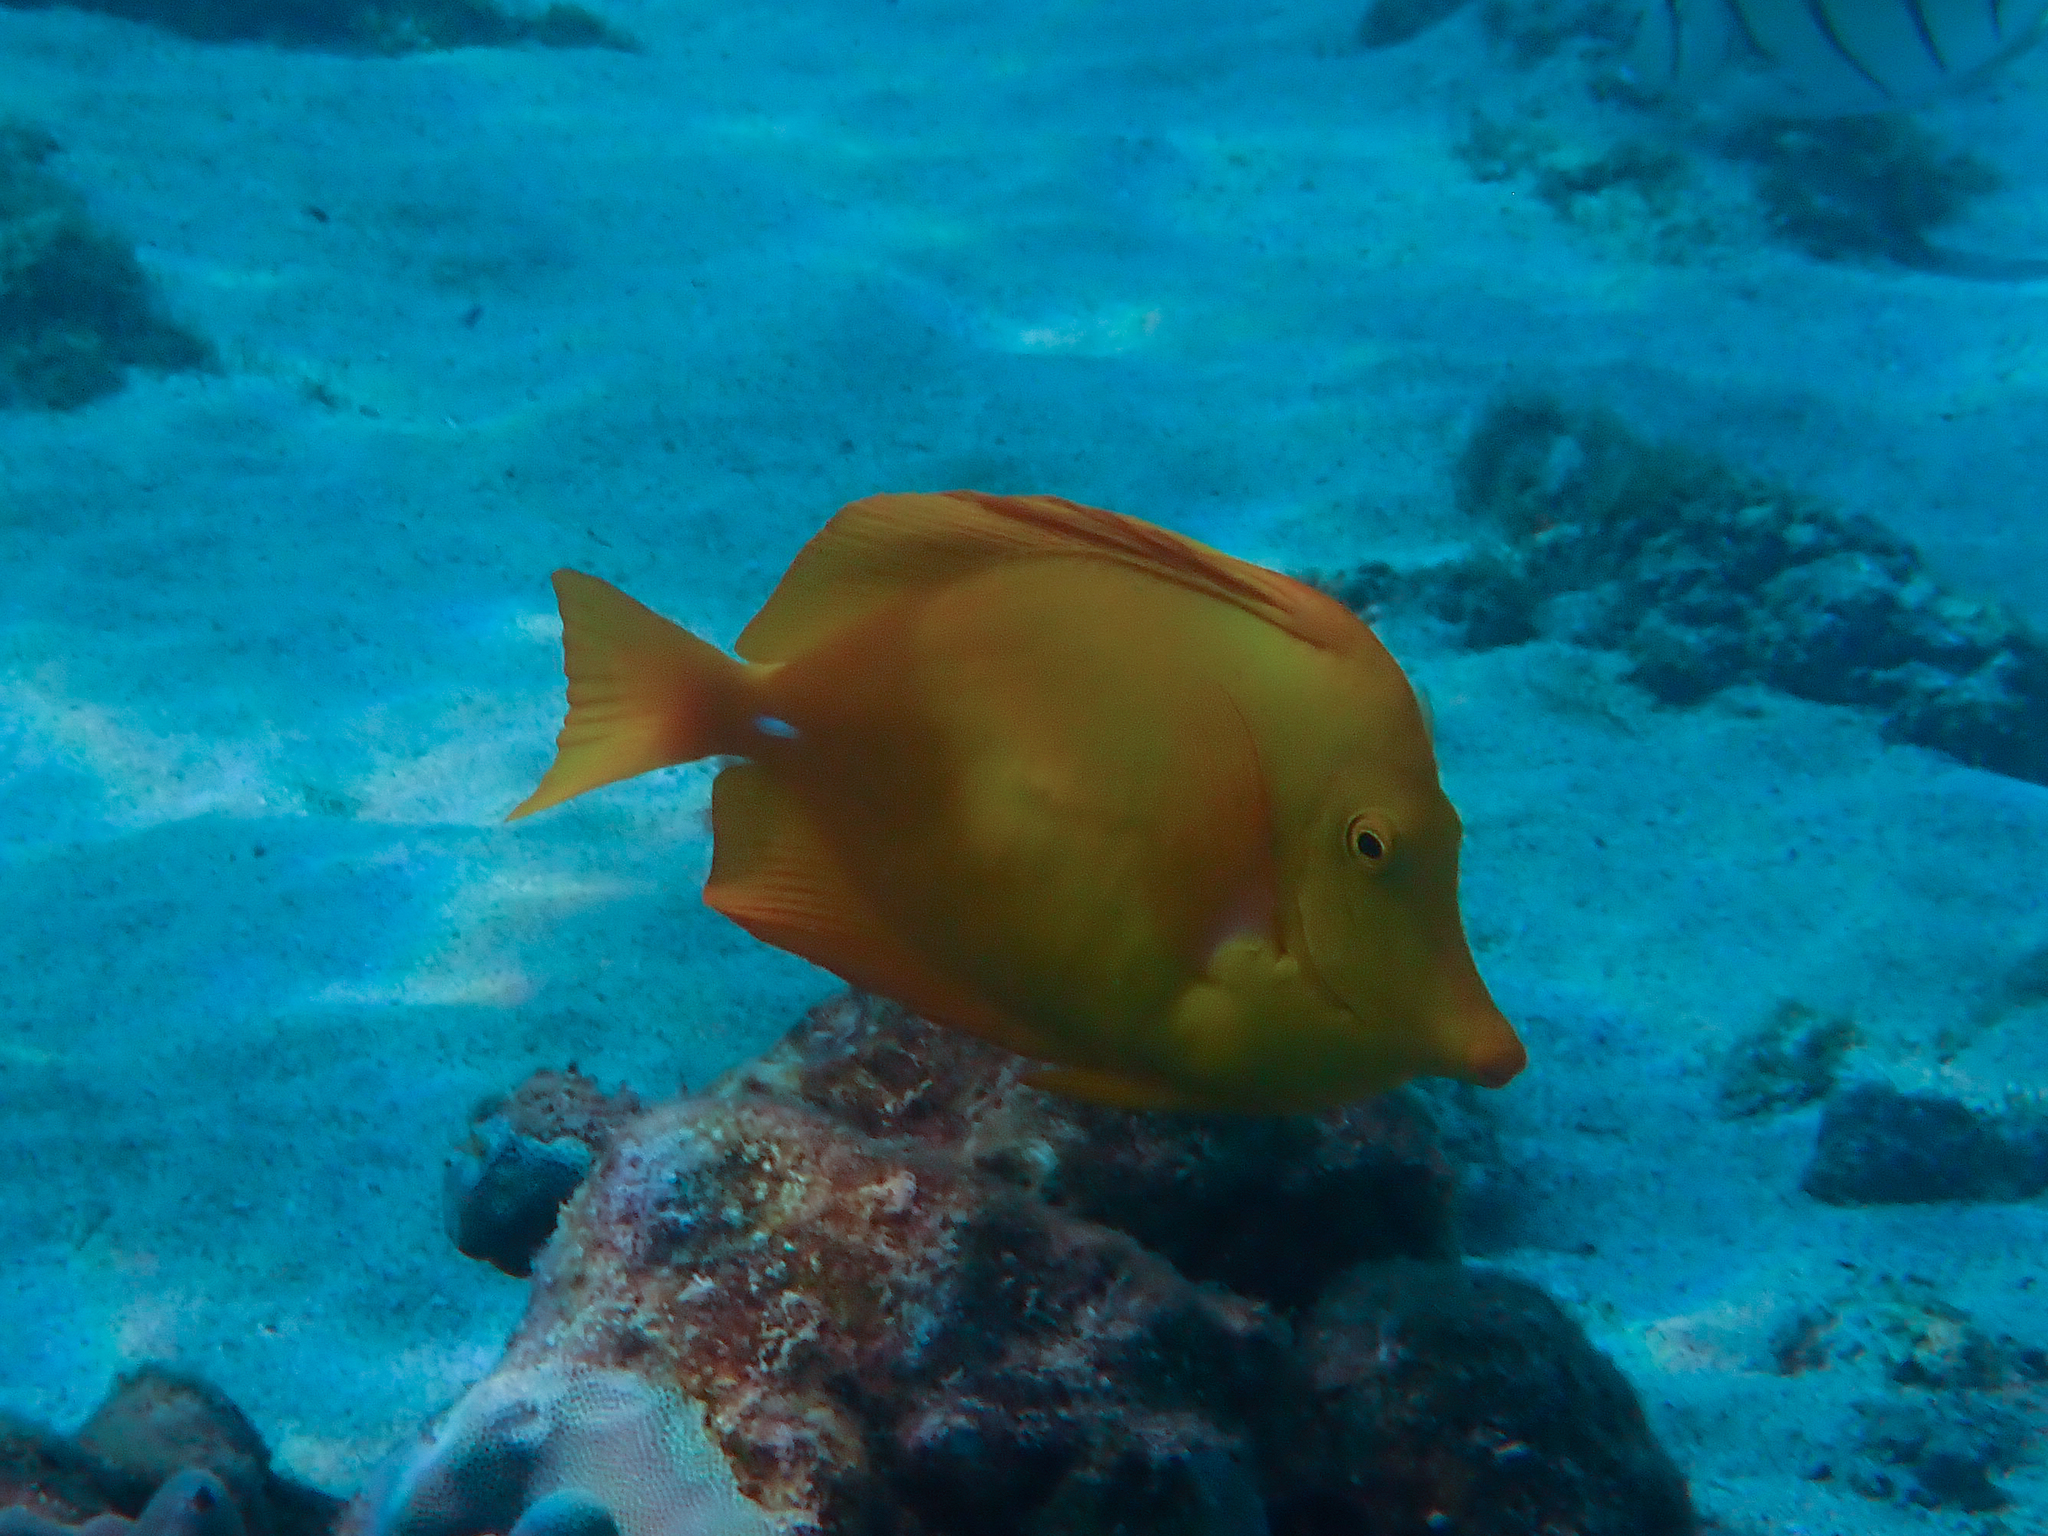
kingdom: Animalia
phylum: Chordata
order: Perciformes
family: Acanthuridae
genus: Zebrasoma
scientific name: Zebrasoma flavescens
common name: Yellow tang
